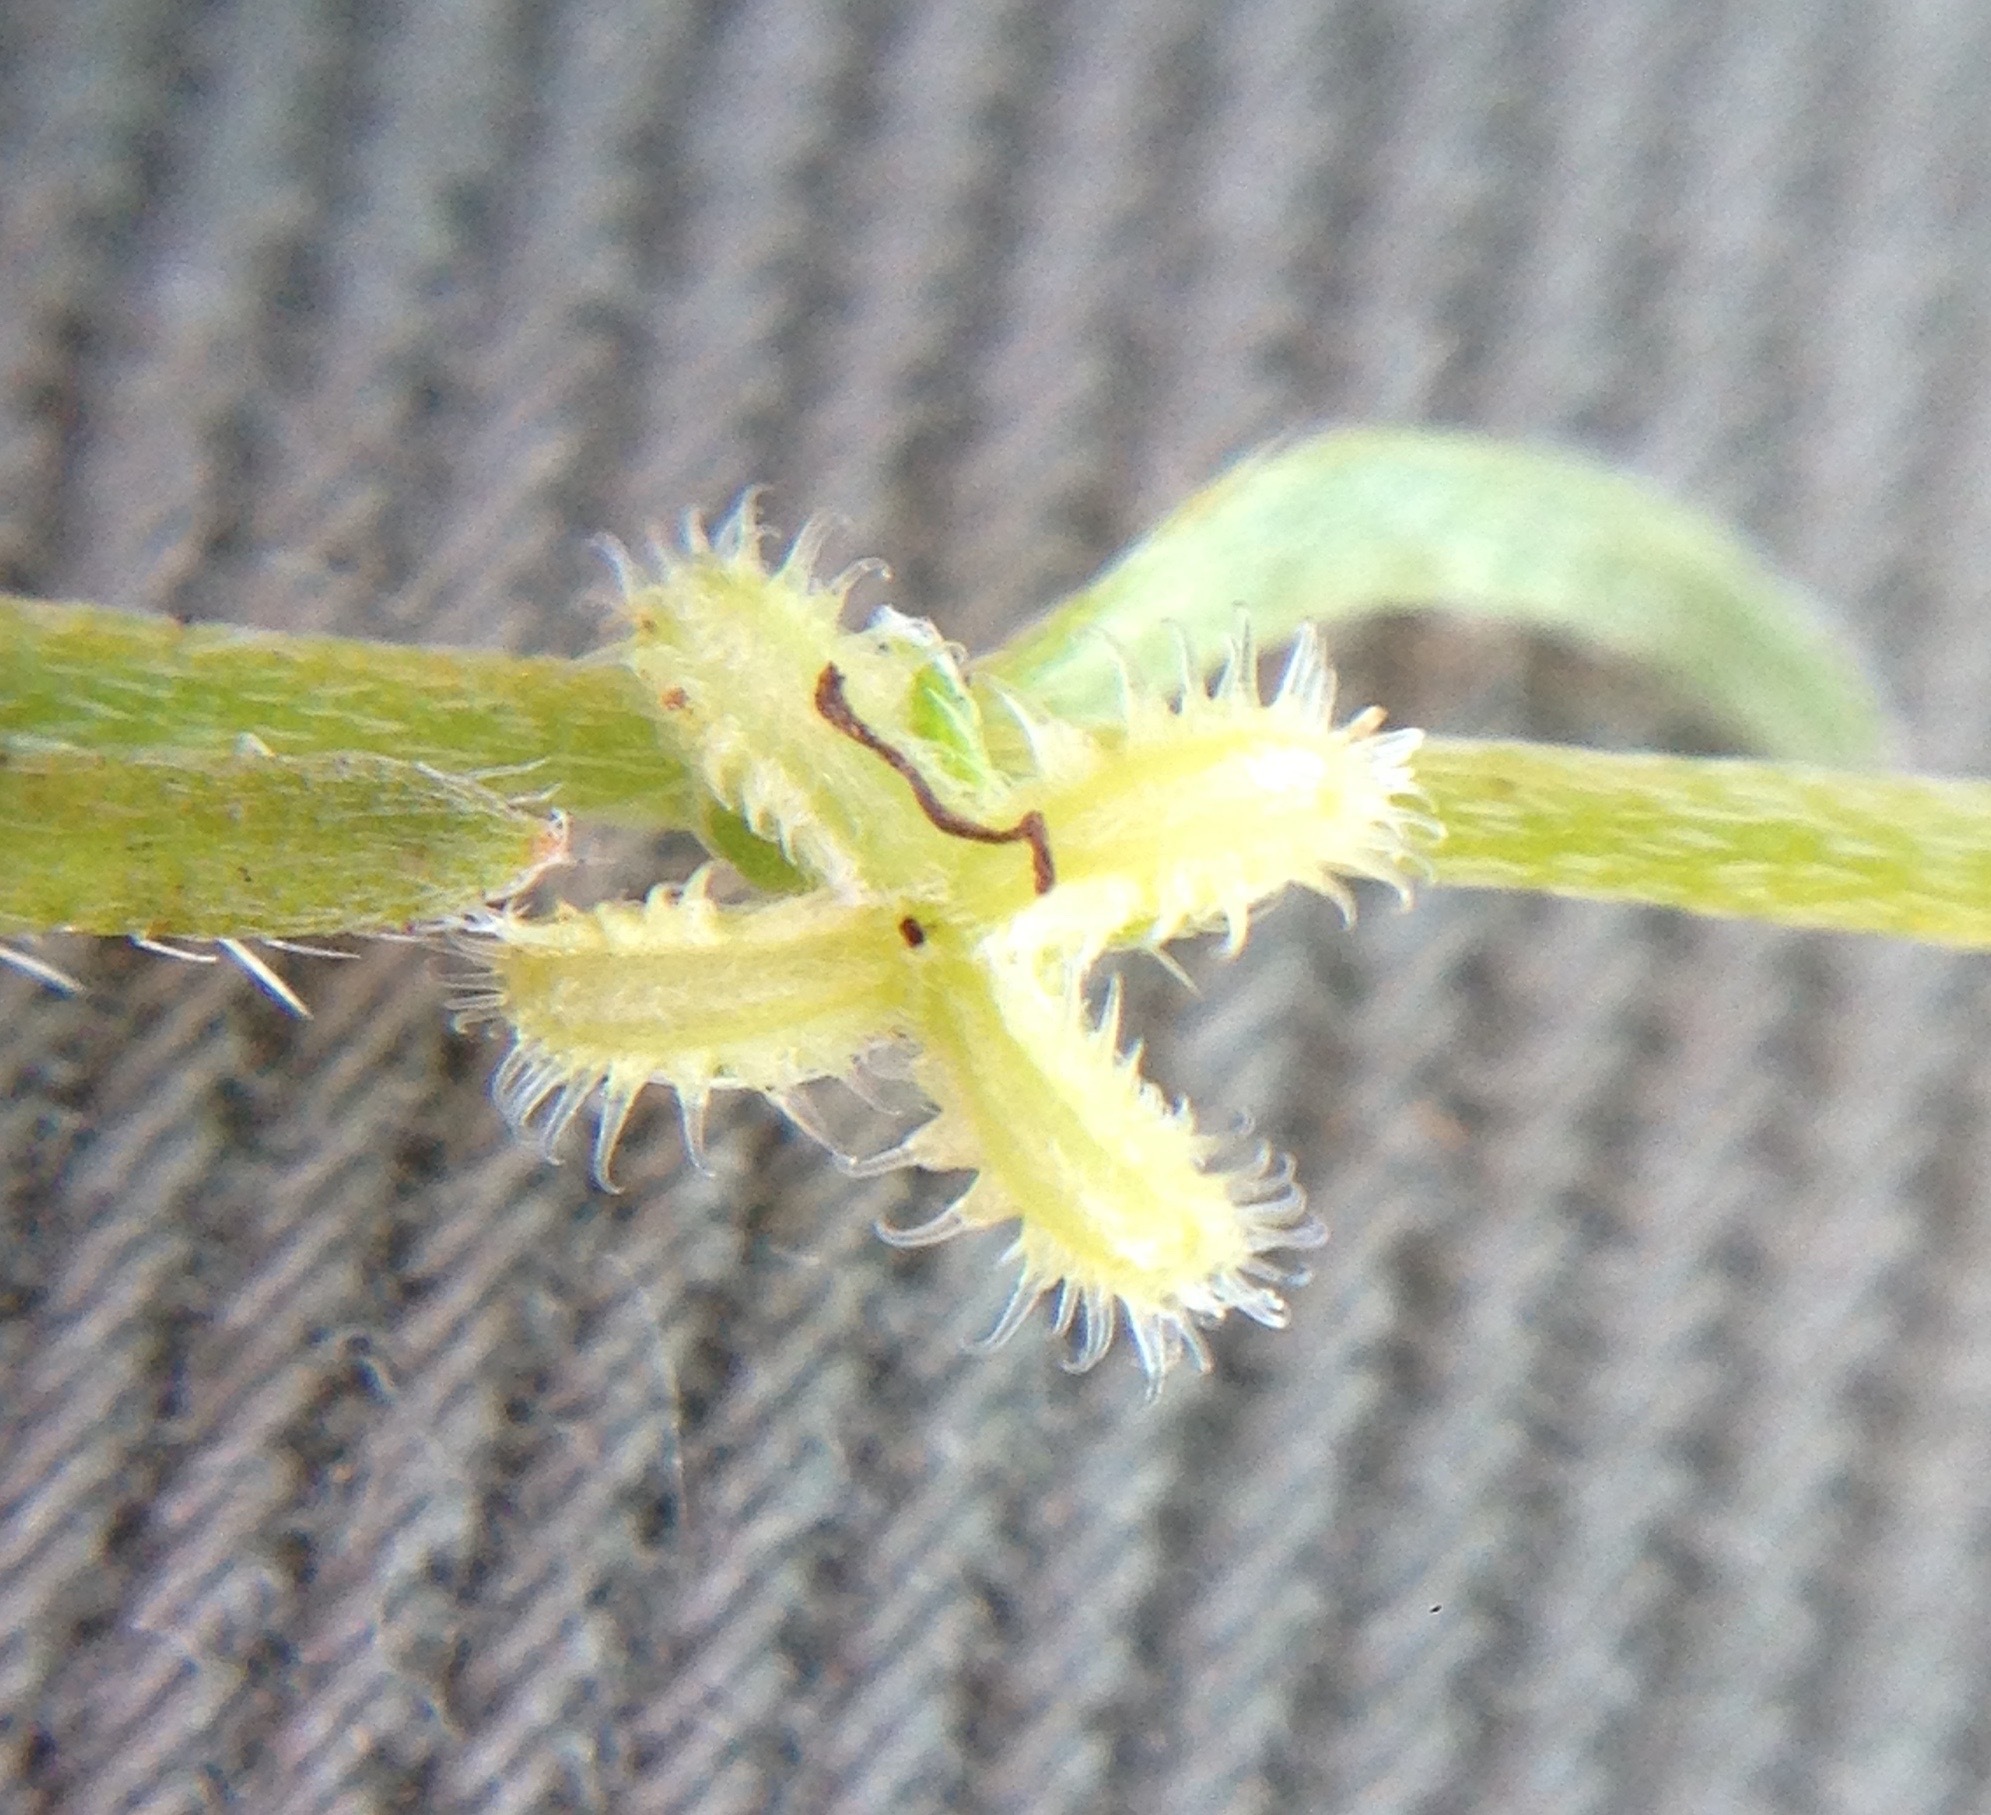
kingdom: Plantae
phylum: Tracheophyta
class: Magnoliopsida
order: Boraginales
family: Boraginaceae
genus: Pectocarya
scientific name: Pectocarya linearis
